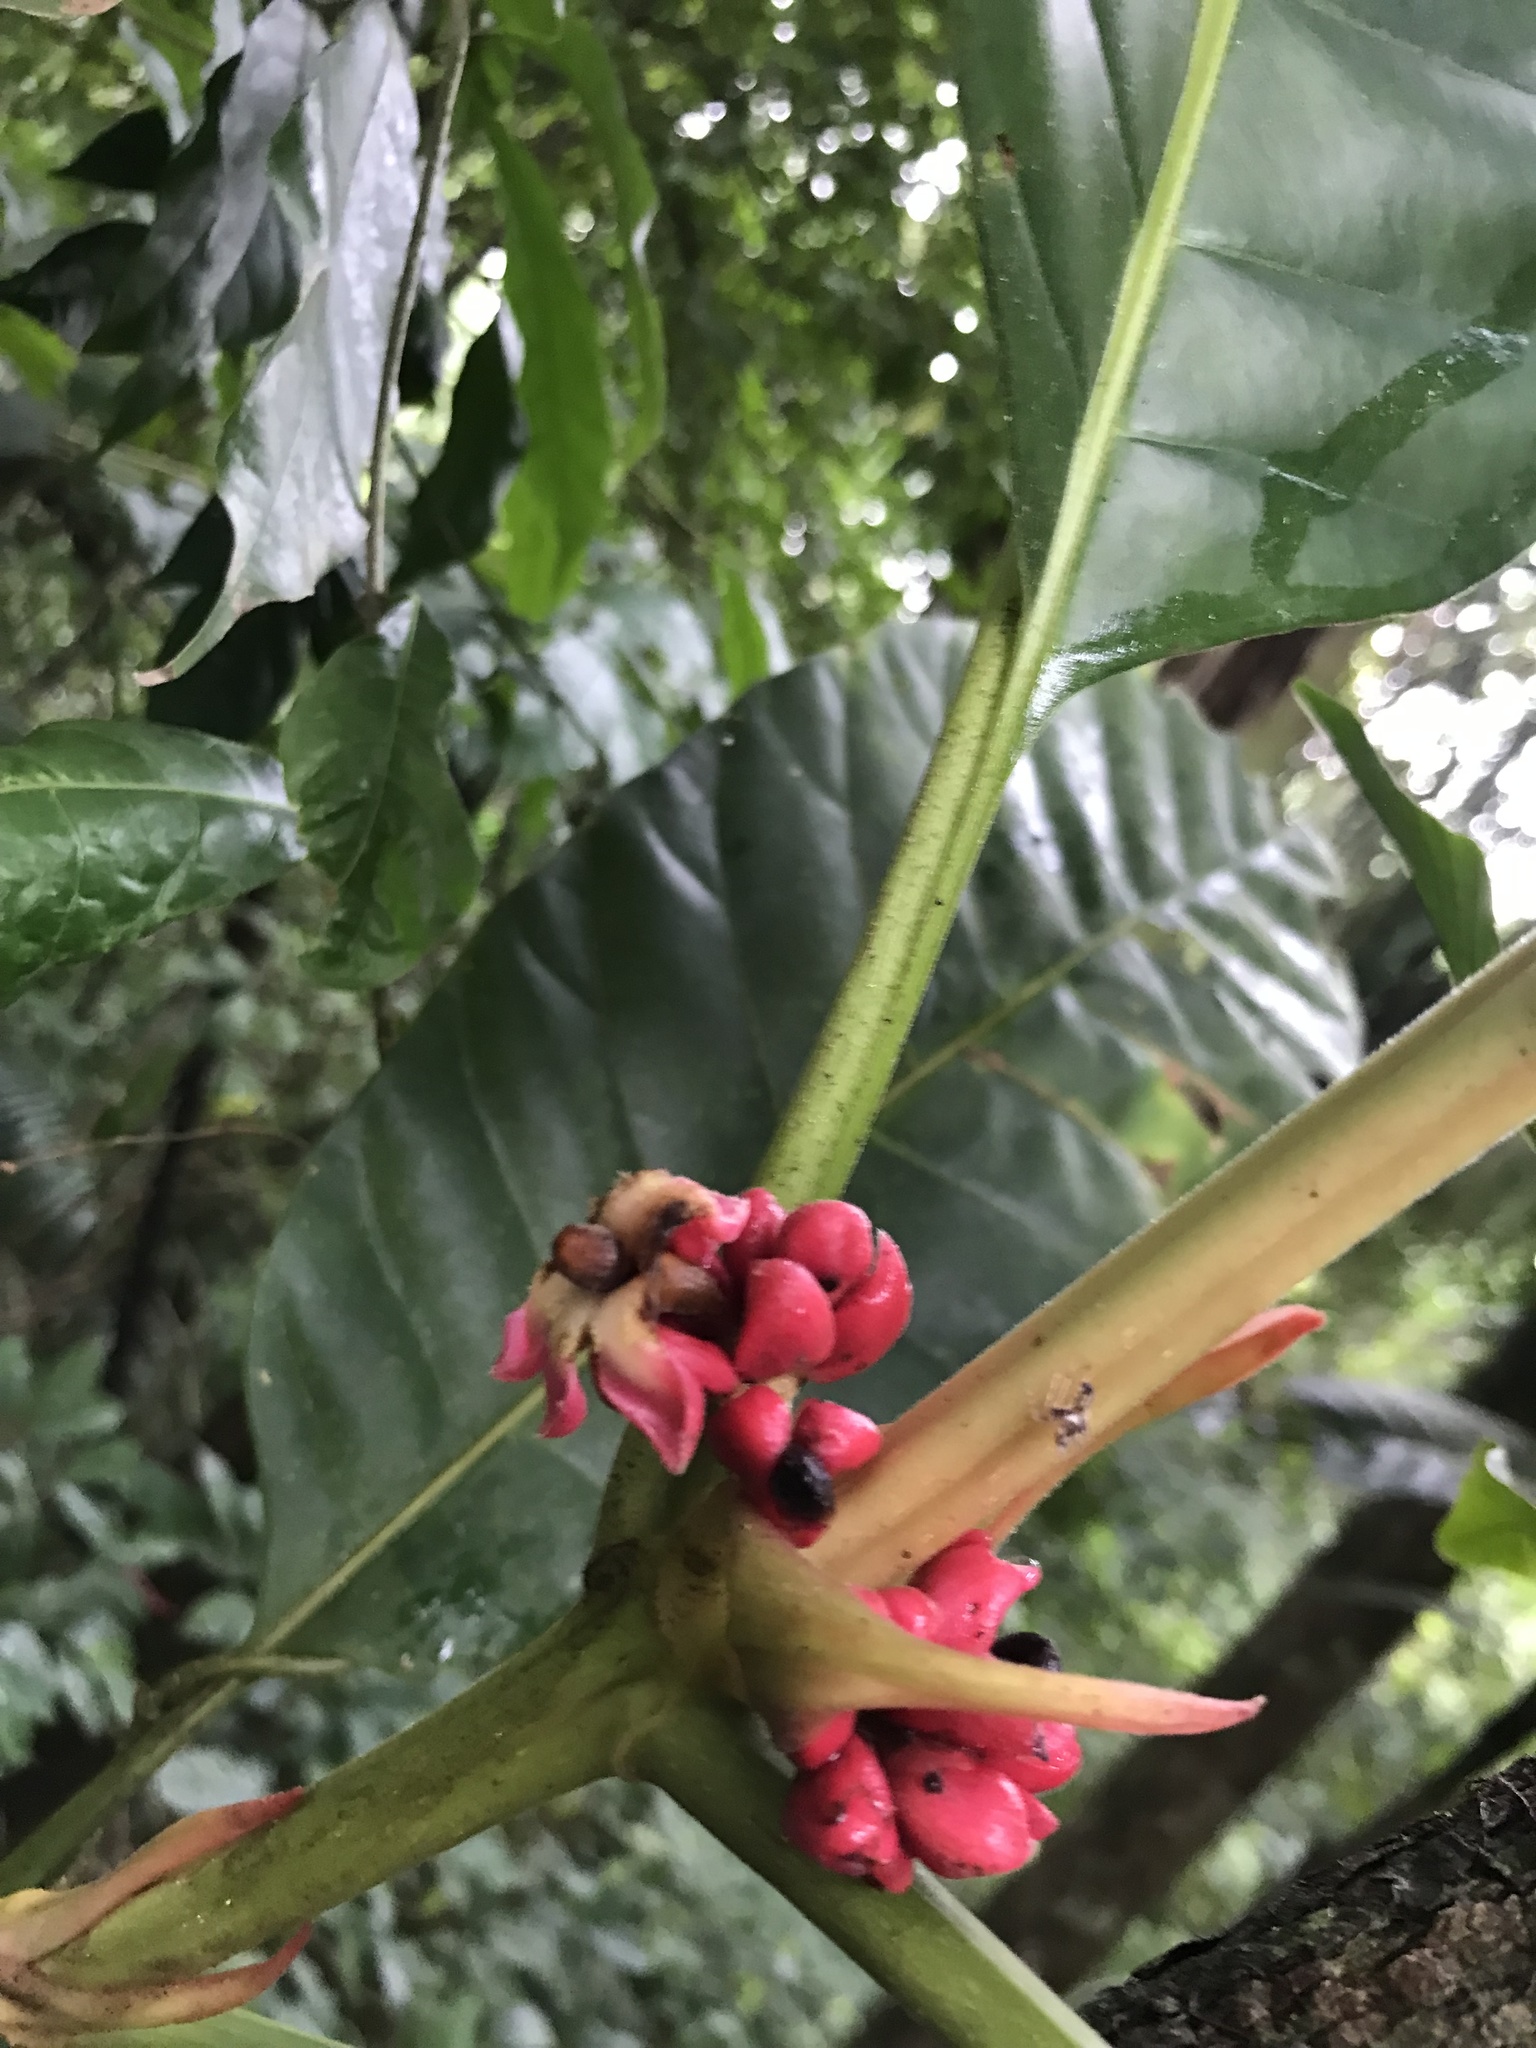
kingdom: Plantae
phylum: Tracheophyta
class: Magnoliopsida
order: Gentianales
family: Rubiaceae
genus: Pentagonia
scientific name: Pentagonia macrophylla
